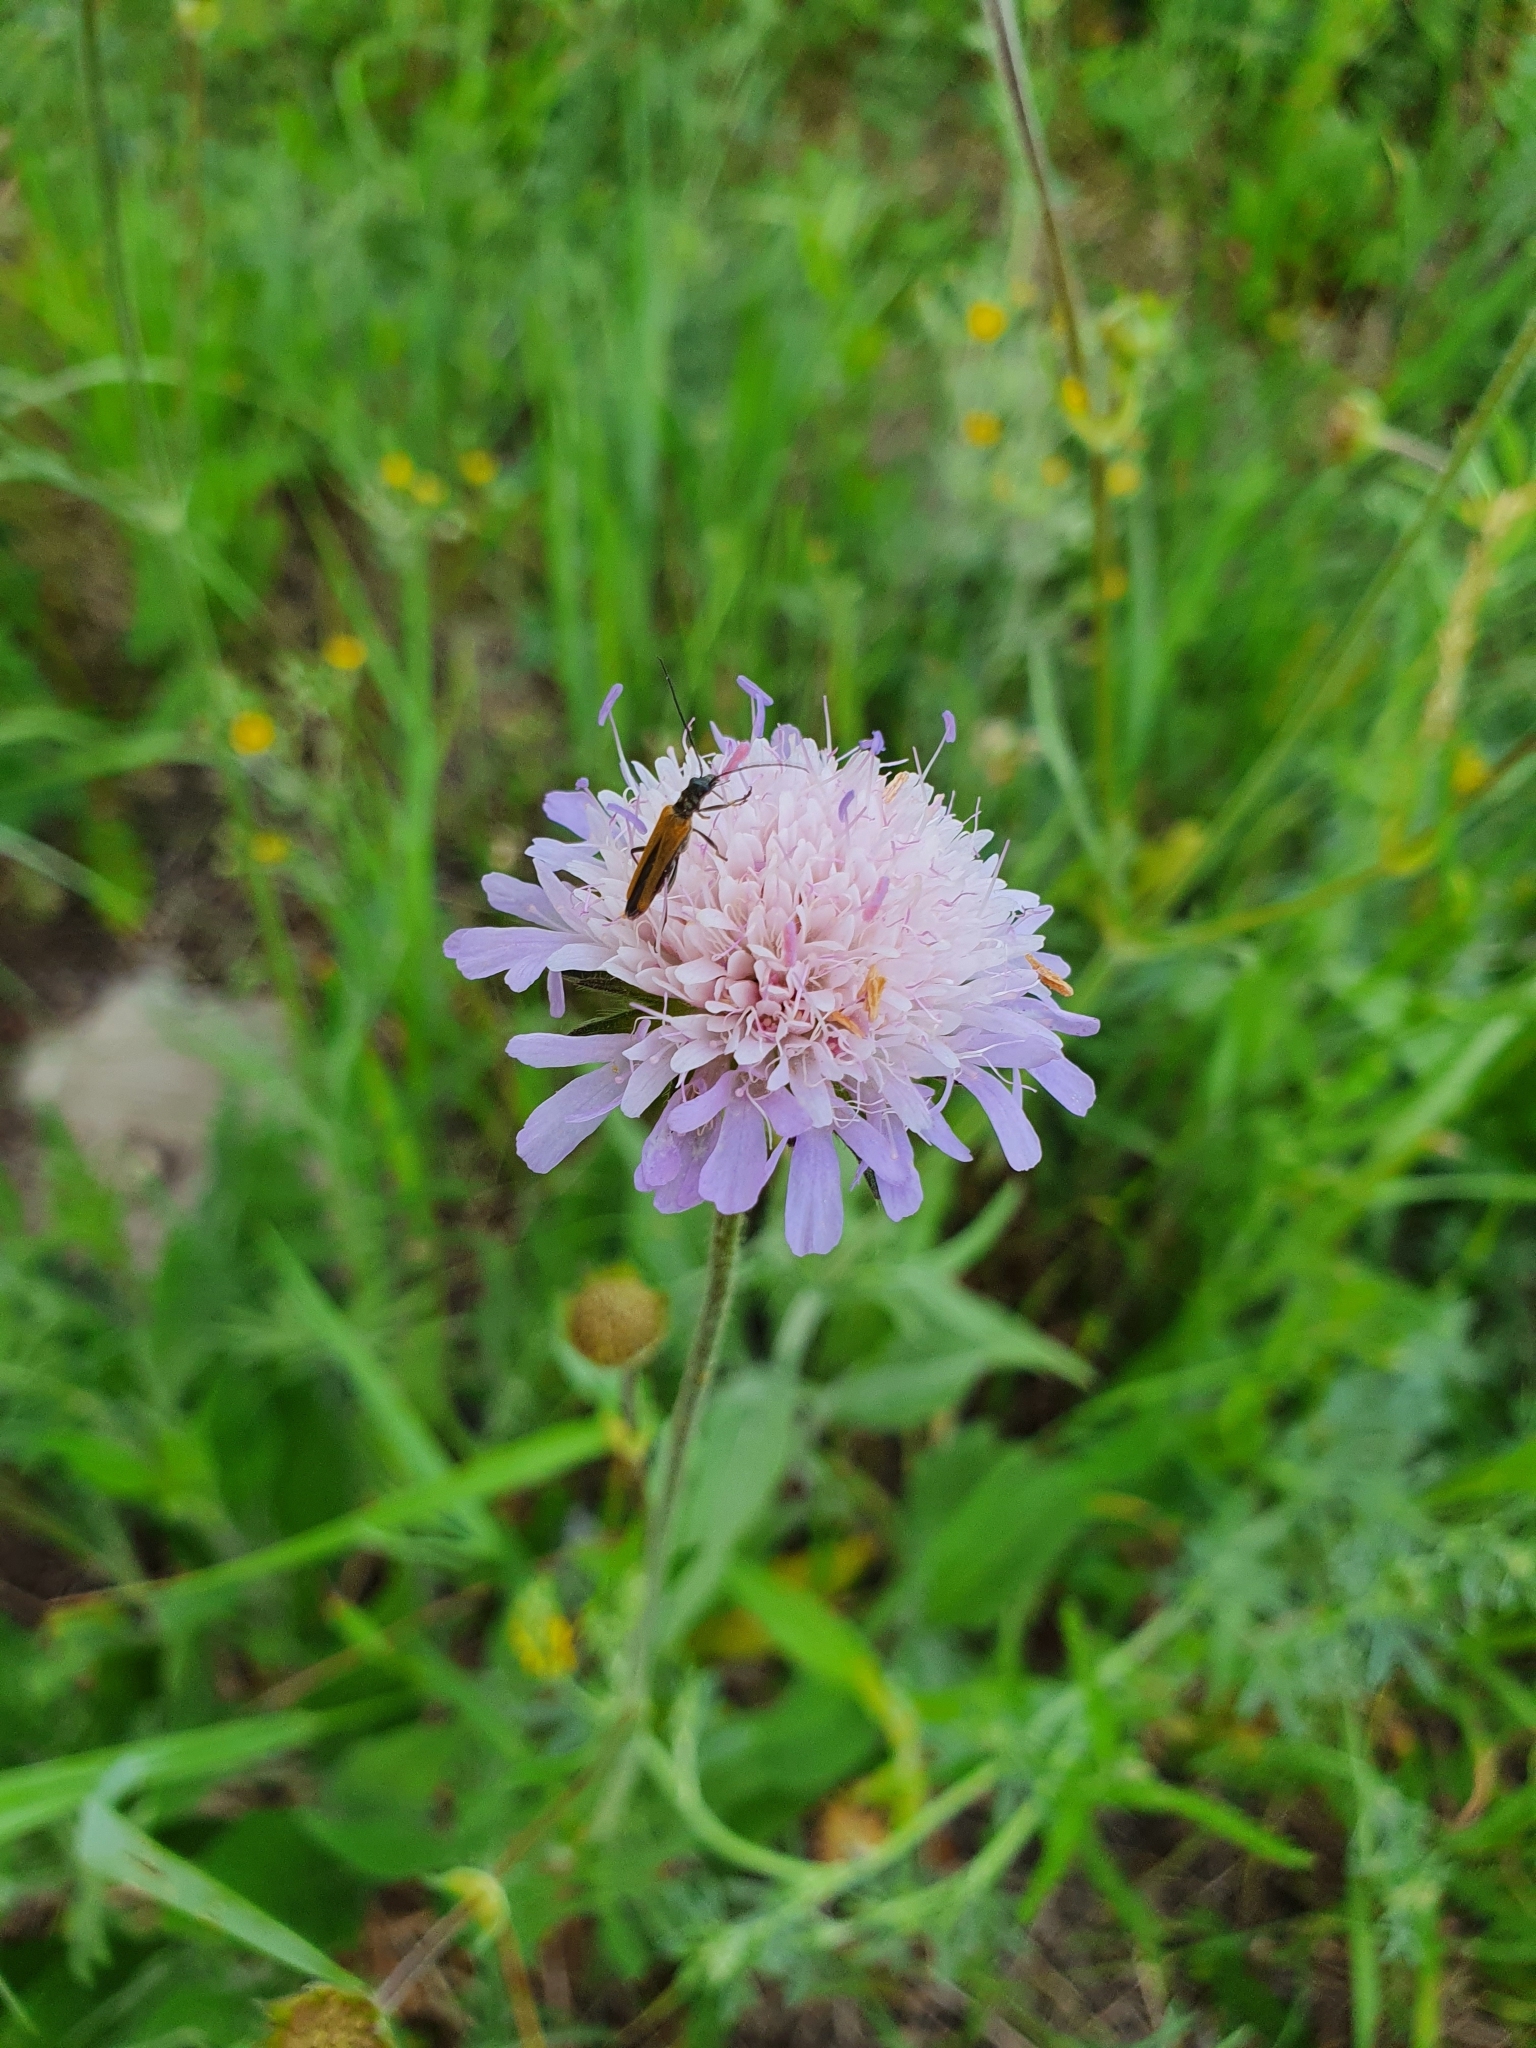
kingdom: Plantae
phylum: Tracheophyta
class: Magnoliopsida
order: Dipsacales
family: Caprifoliaceae
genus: Knautia
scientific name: Knautia arvensis
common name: Field scabiosa
